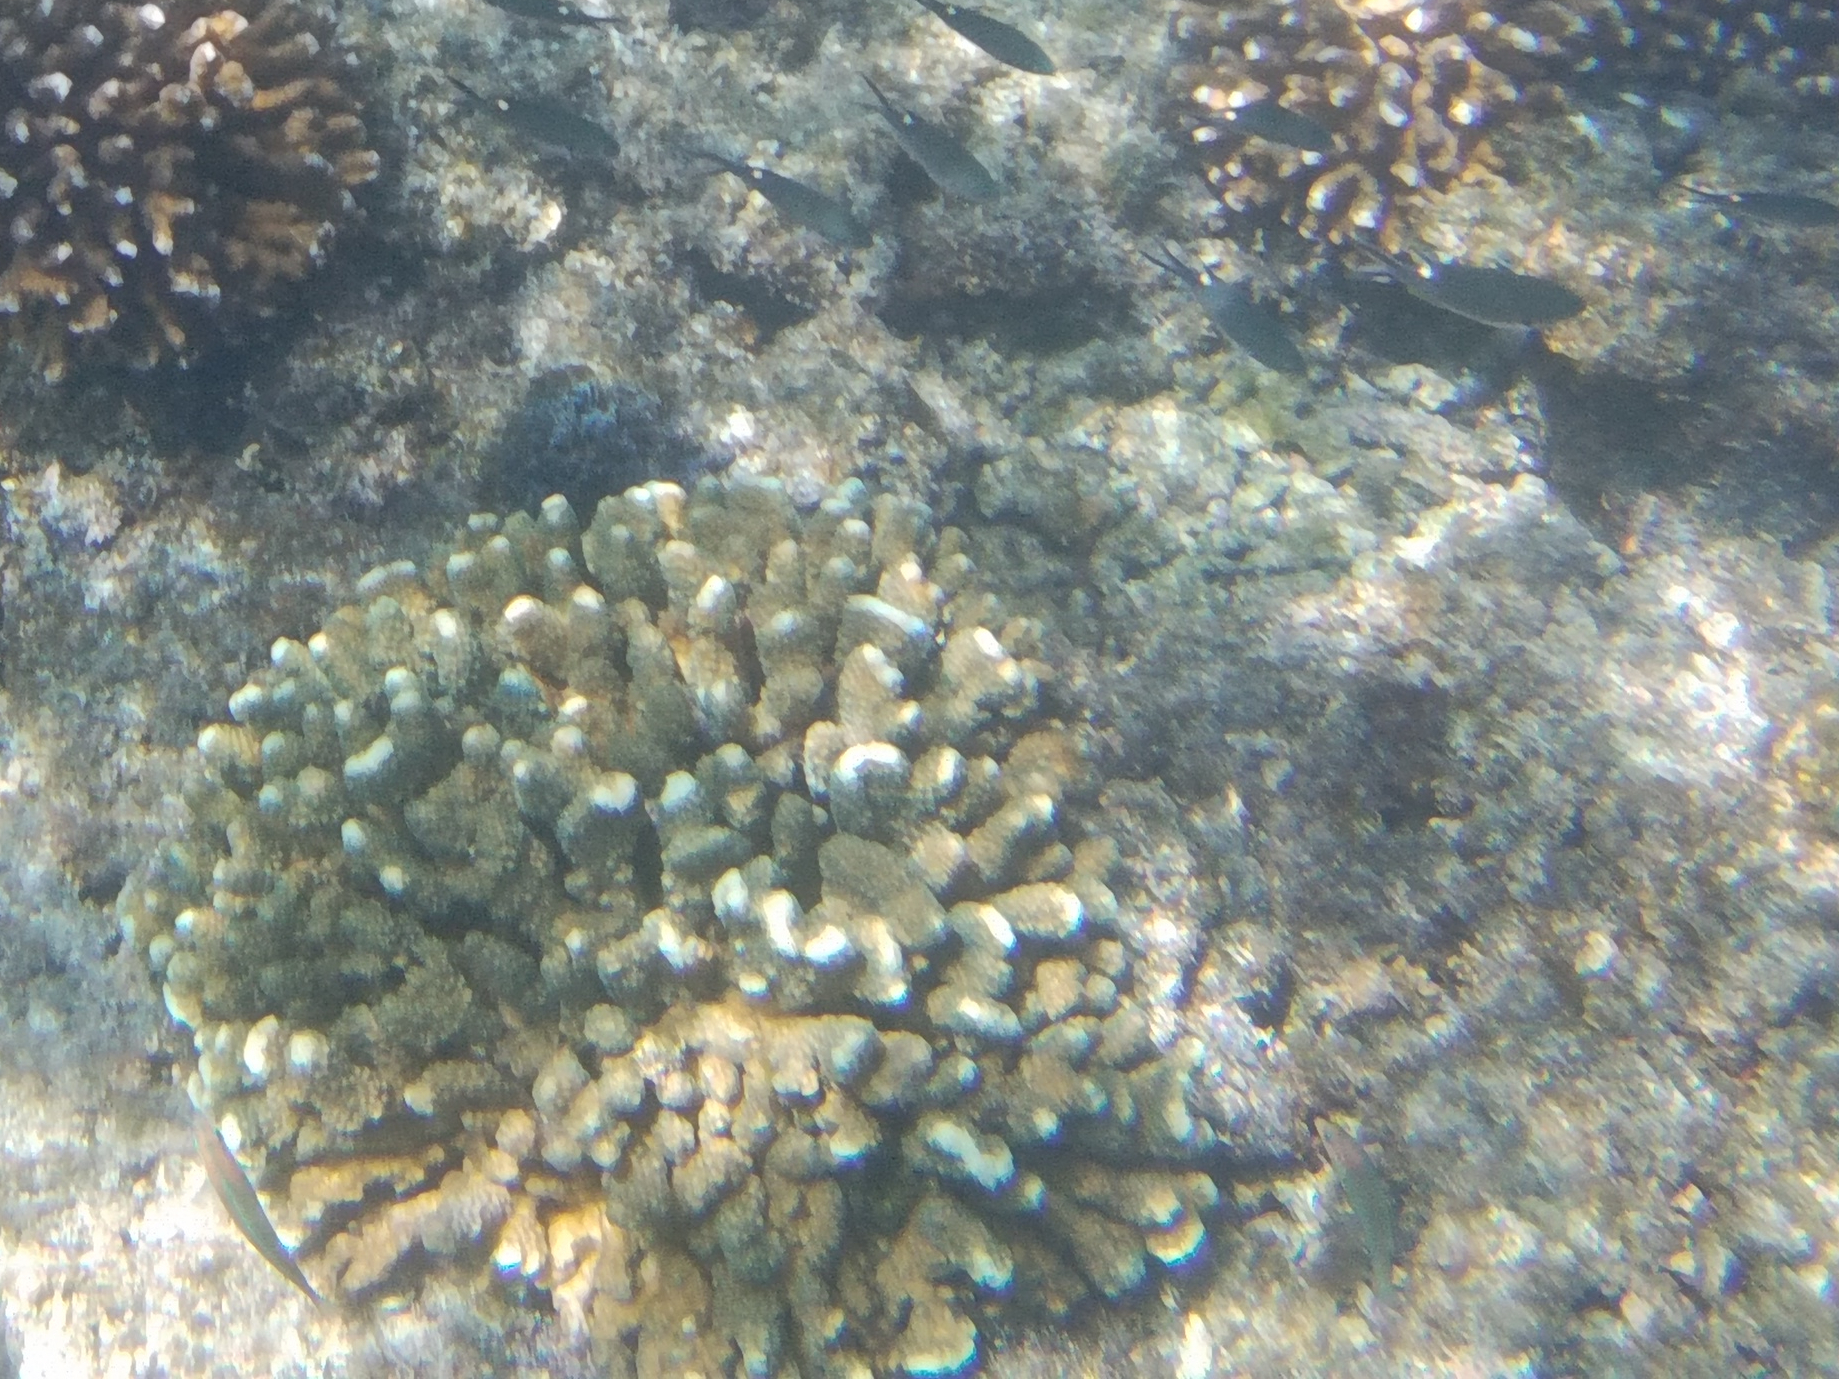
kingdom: Animalia
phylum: Chordata
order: Perciformes
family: Pomacentridae
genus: Chromis
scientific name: Chromis atrilobata
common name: Scissortail damselfish
